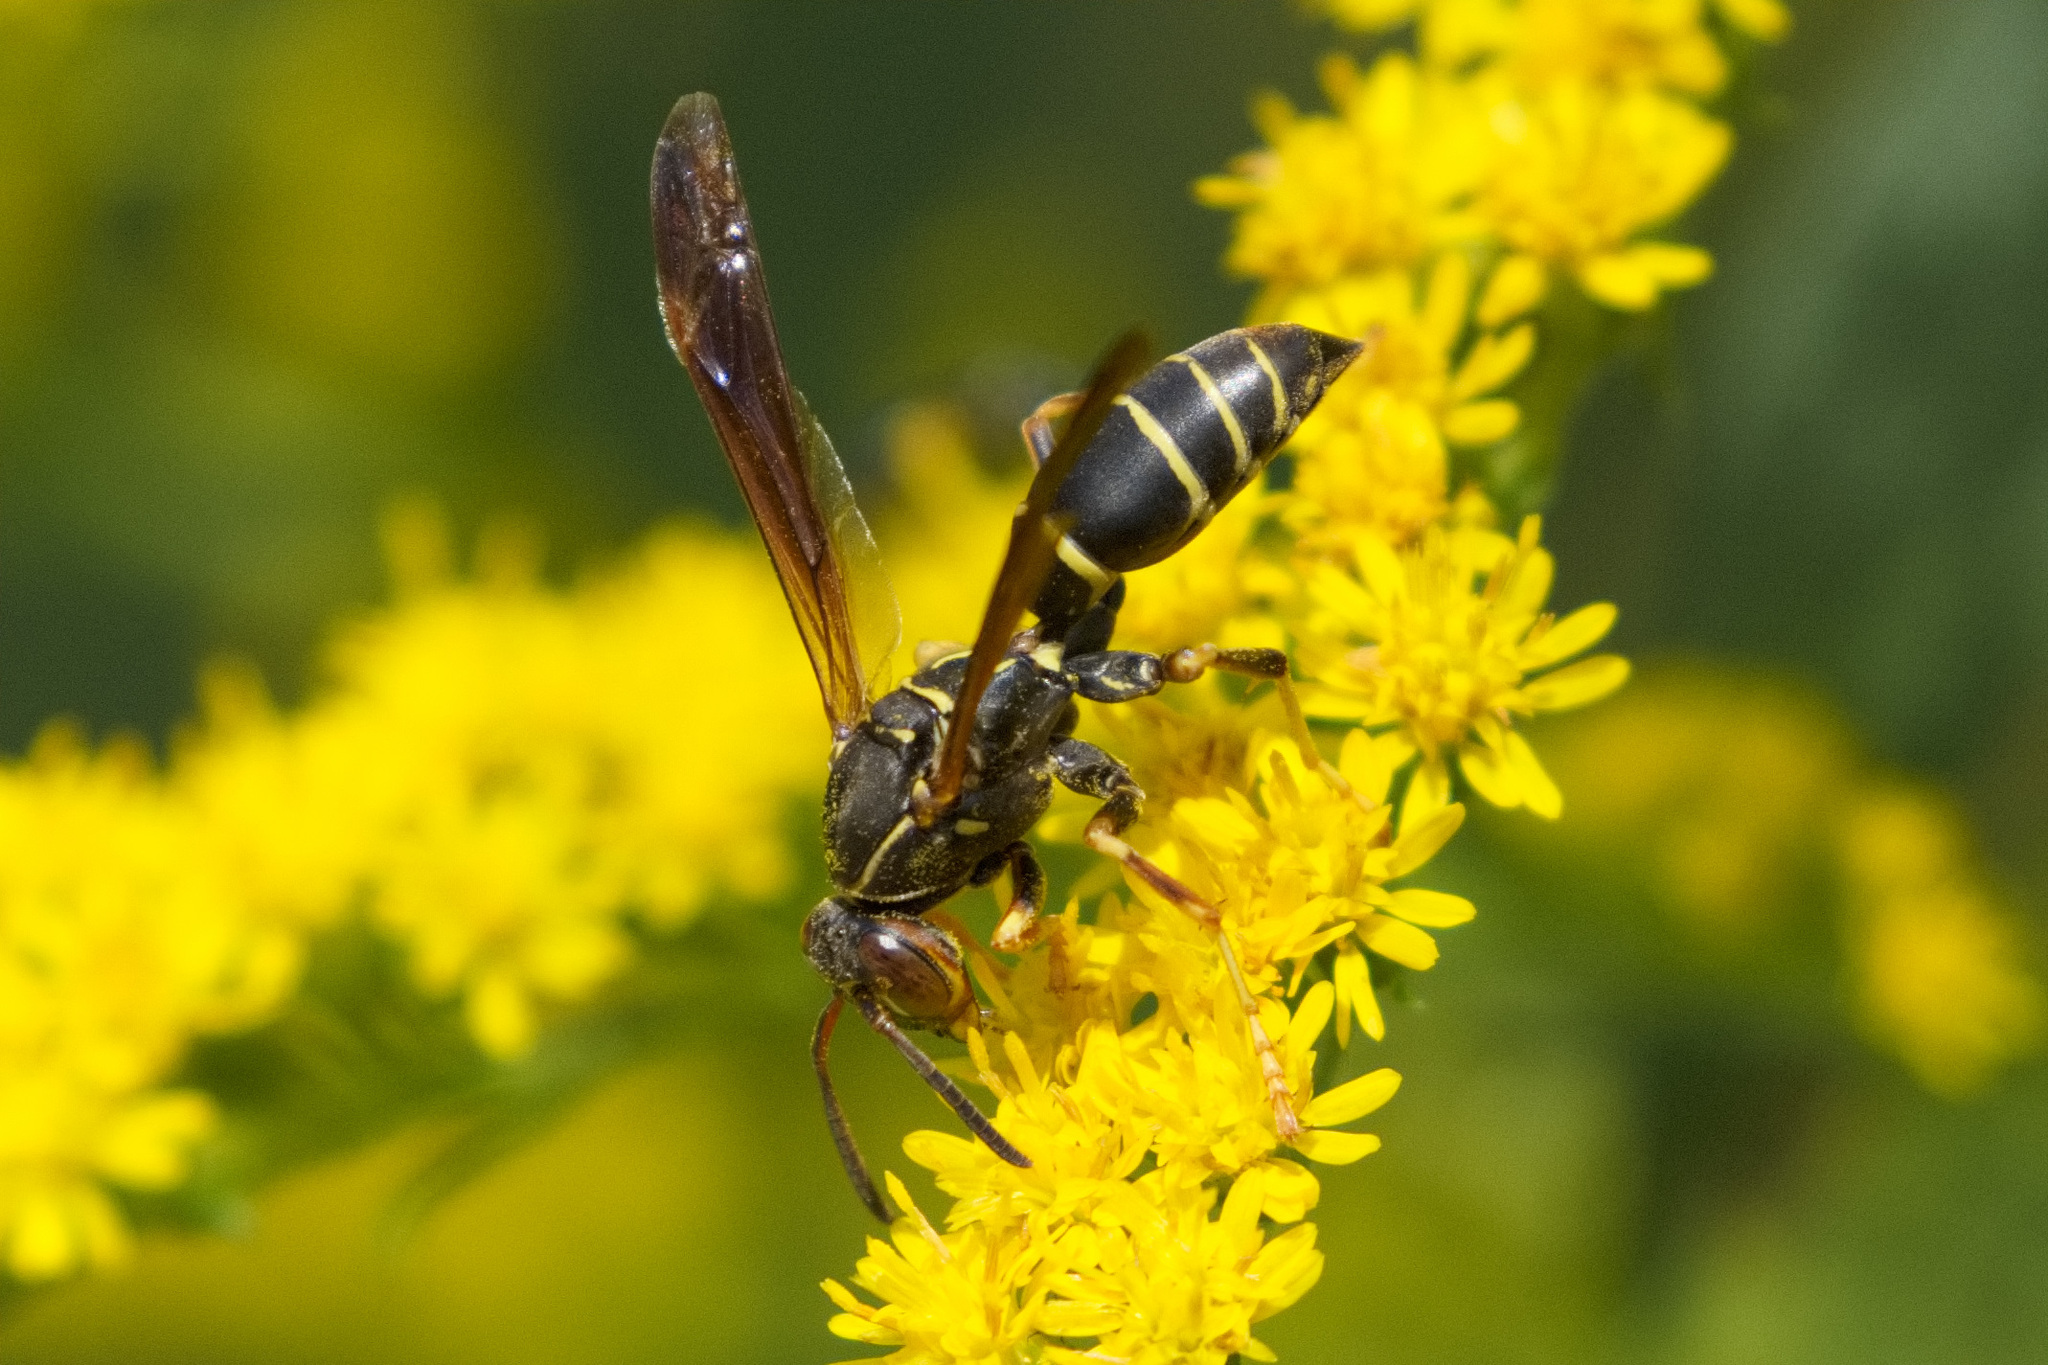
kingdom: Animalia
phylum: Arthropoda
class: Insecta
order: Hymenoptera
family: Eumenidae
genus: Polistes
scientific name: Polistes fuscatus
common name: Dark paper wasp
